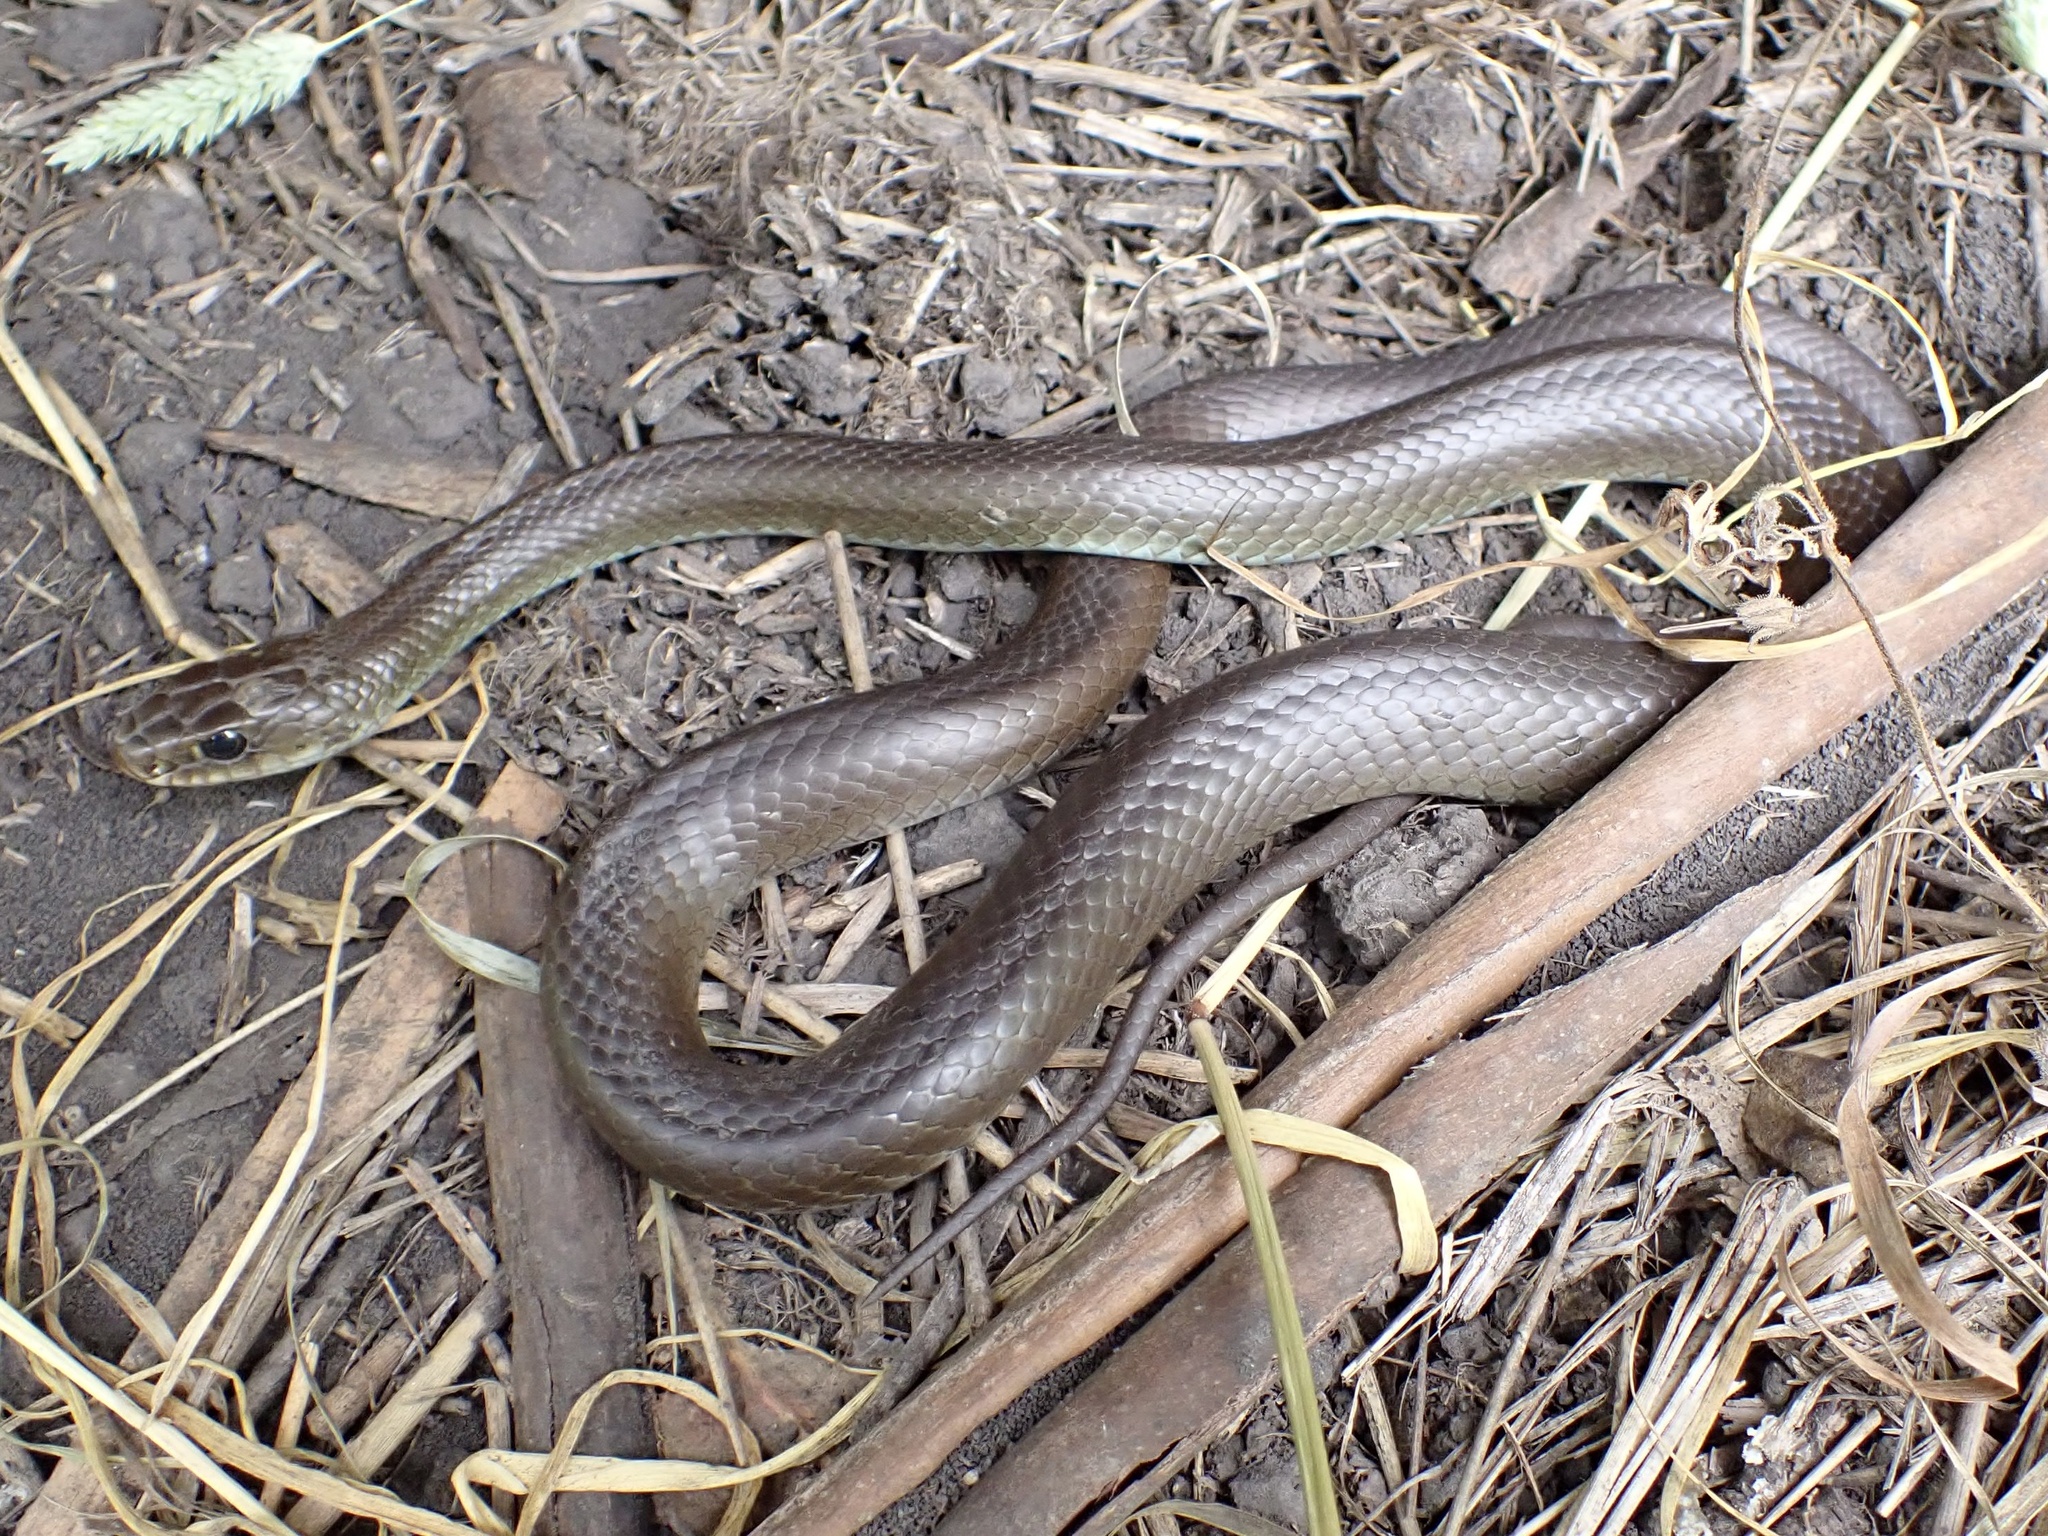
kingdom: Animalia
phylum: Chordata
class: Squamata
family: Colubridae
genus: Coluber
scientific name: Coluber constrictor
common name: Eastern racer
